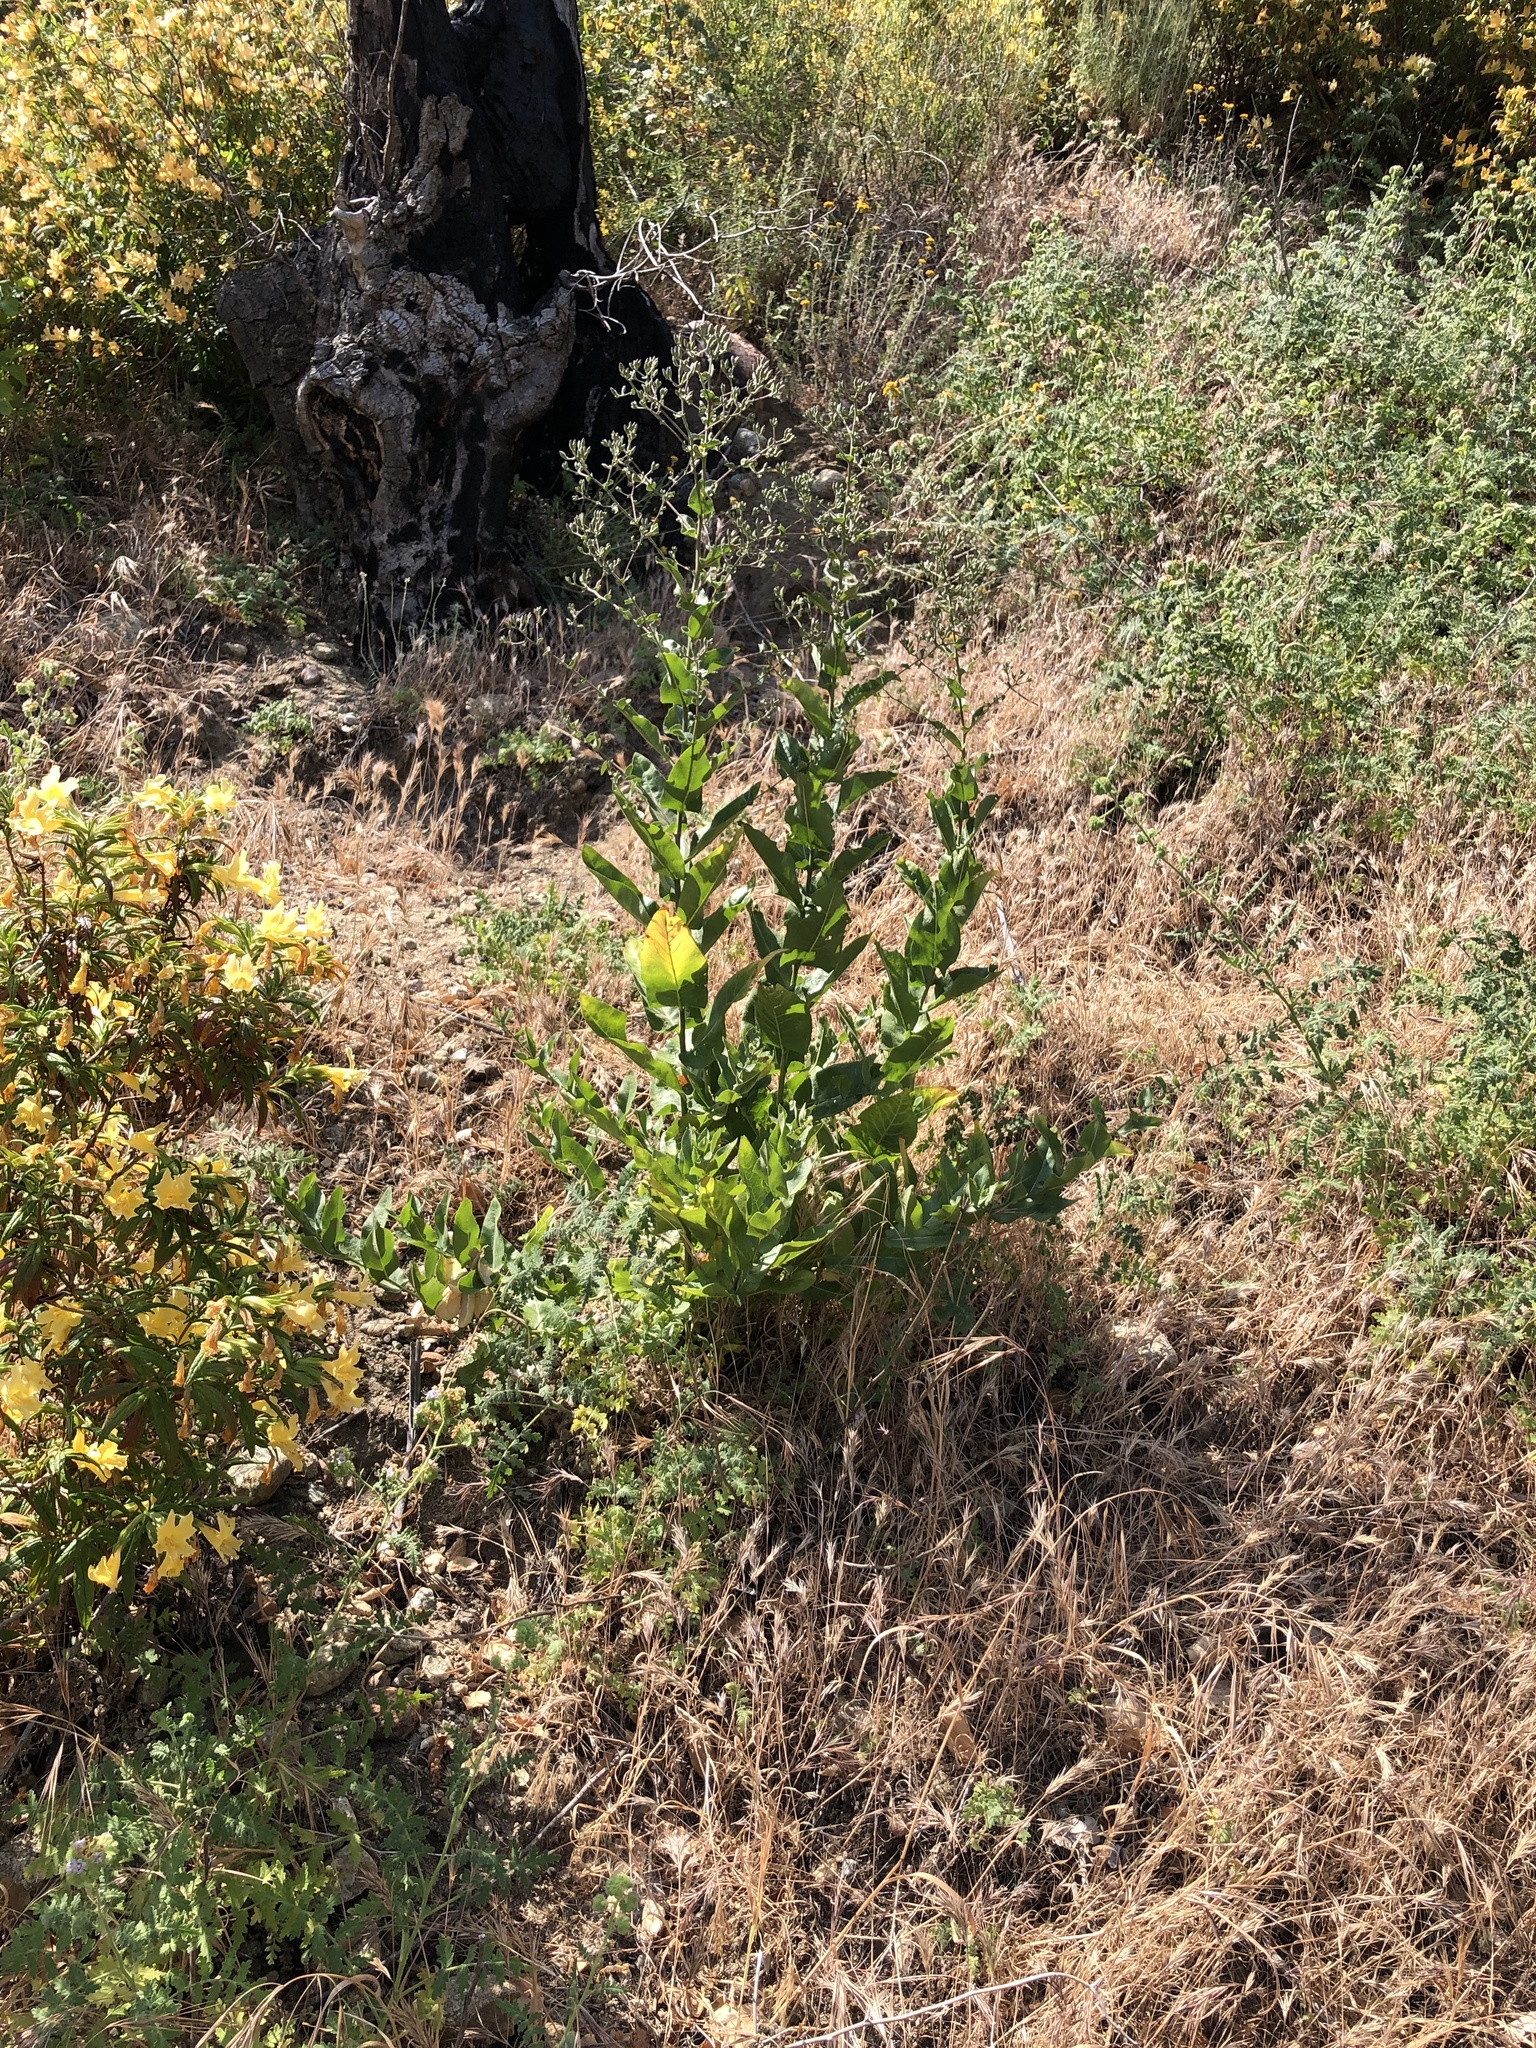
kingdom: Plantae
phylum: Tracheophyta
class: Magnoliopsida
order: Asterales
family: Asteraceae
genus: Acourtia
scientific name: Acourtia microcephala
